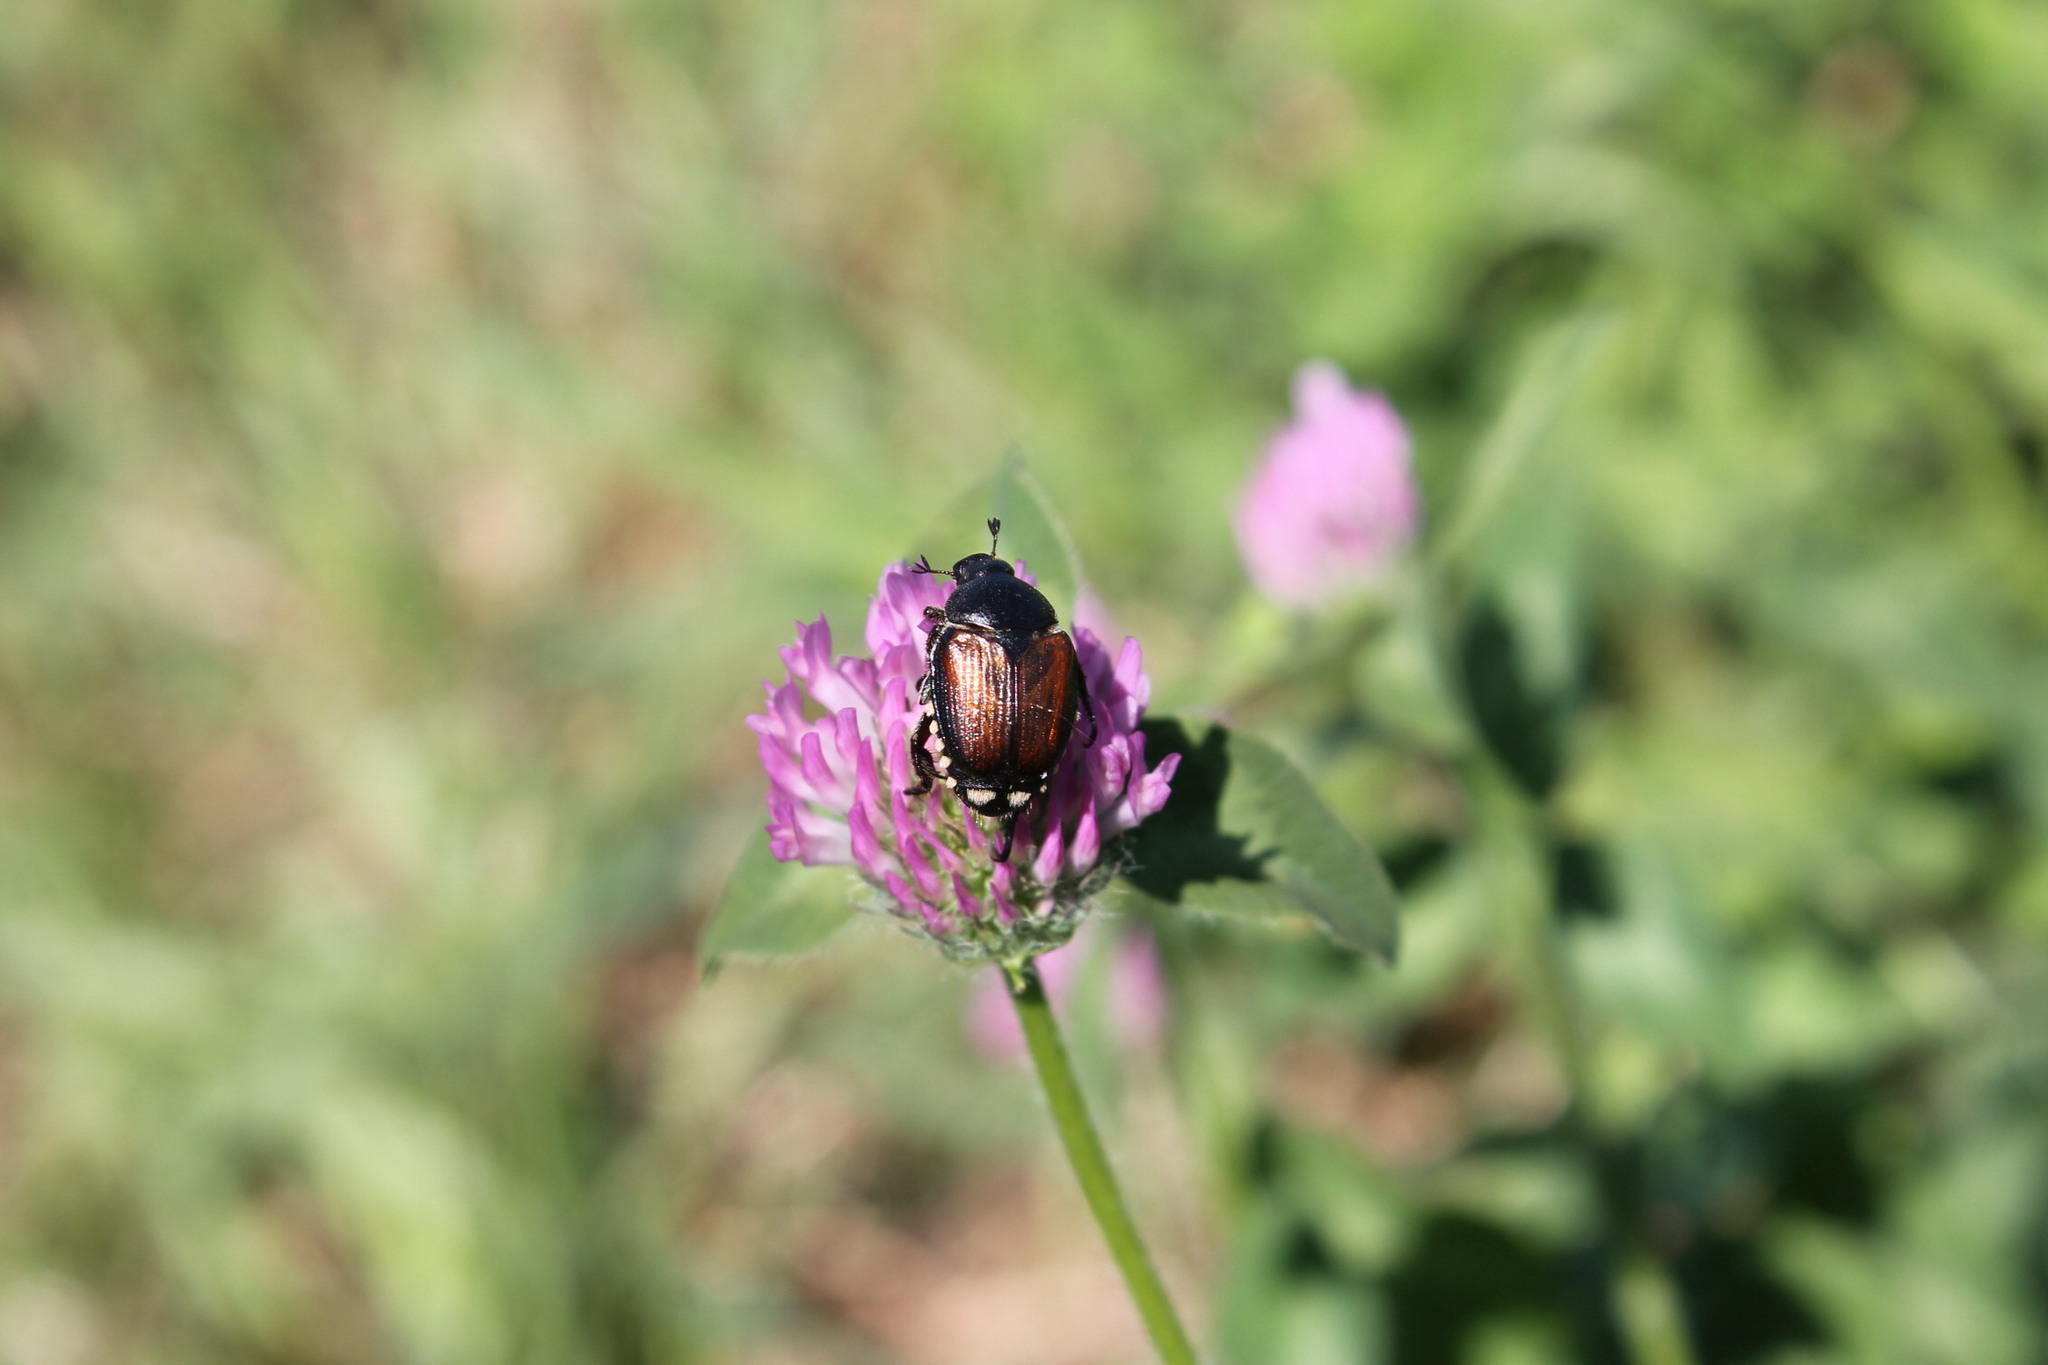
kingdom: Animalia
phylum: Arthropoda
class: Insecta
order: Coleoptera
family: Scarabaeidae
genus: Popillia
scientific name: Popillia japonica
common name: Japanese beetle
